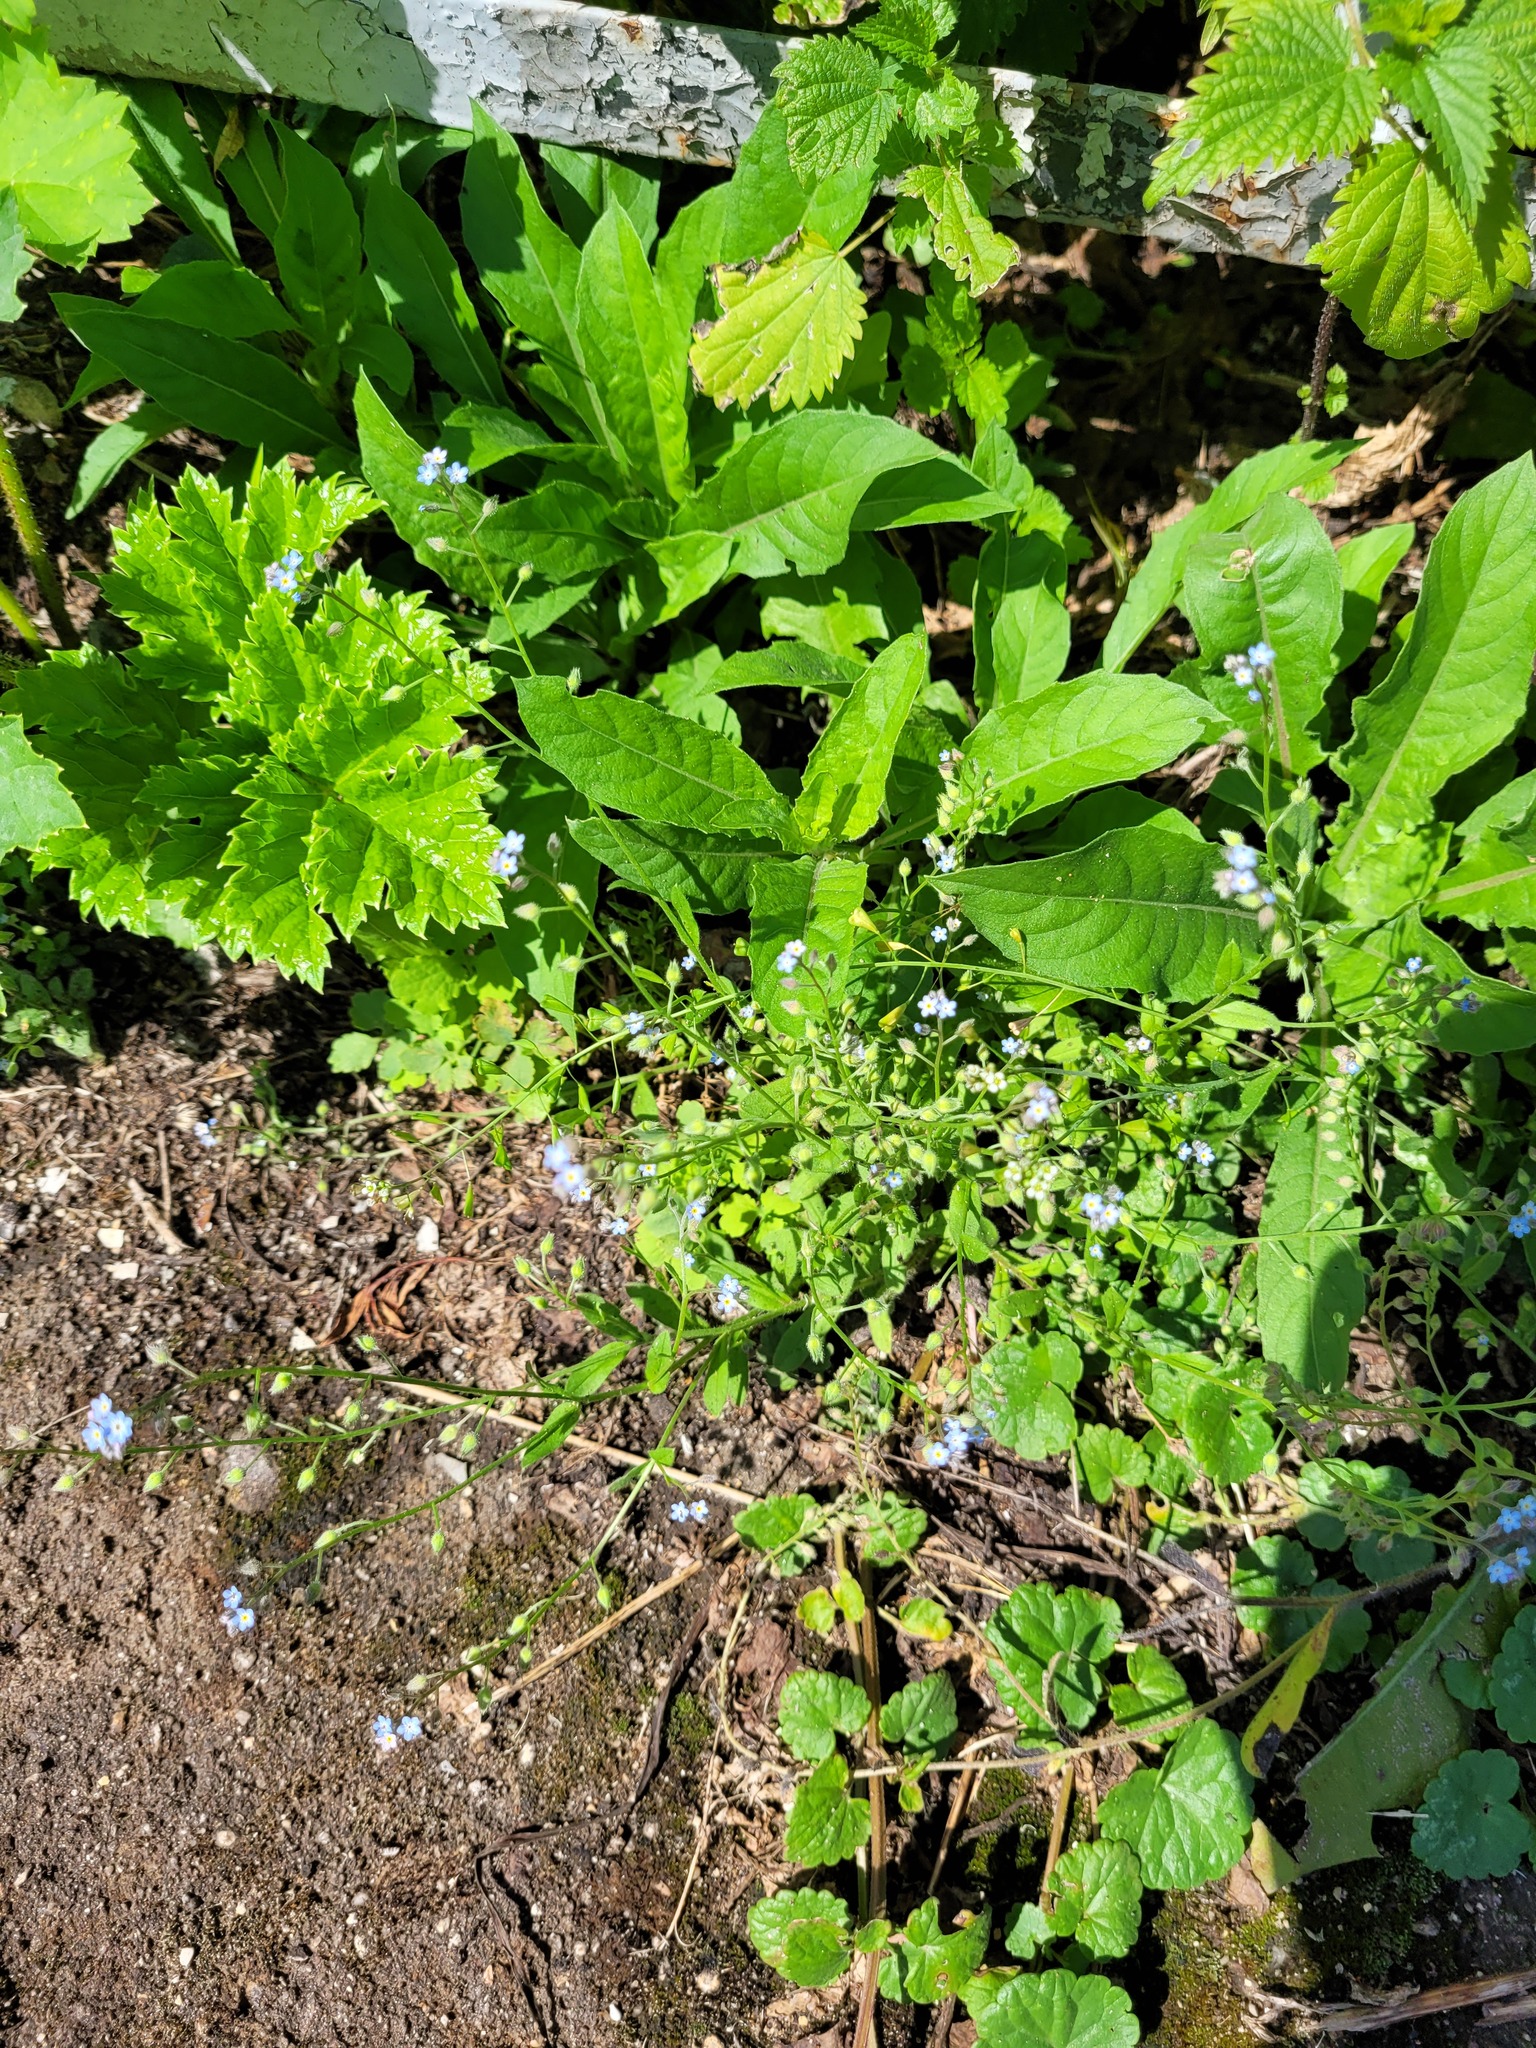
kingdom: Plantae
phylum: Tracheophyta
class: Magnoliopsida
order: Boraginales
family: Boraginaceae
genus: Myosotis
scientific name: Myosotis arvensis
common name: Field forget-me-not
